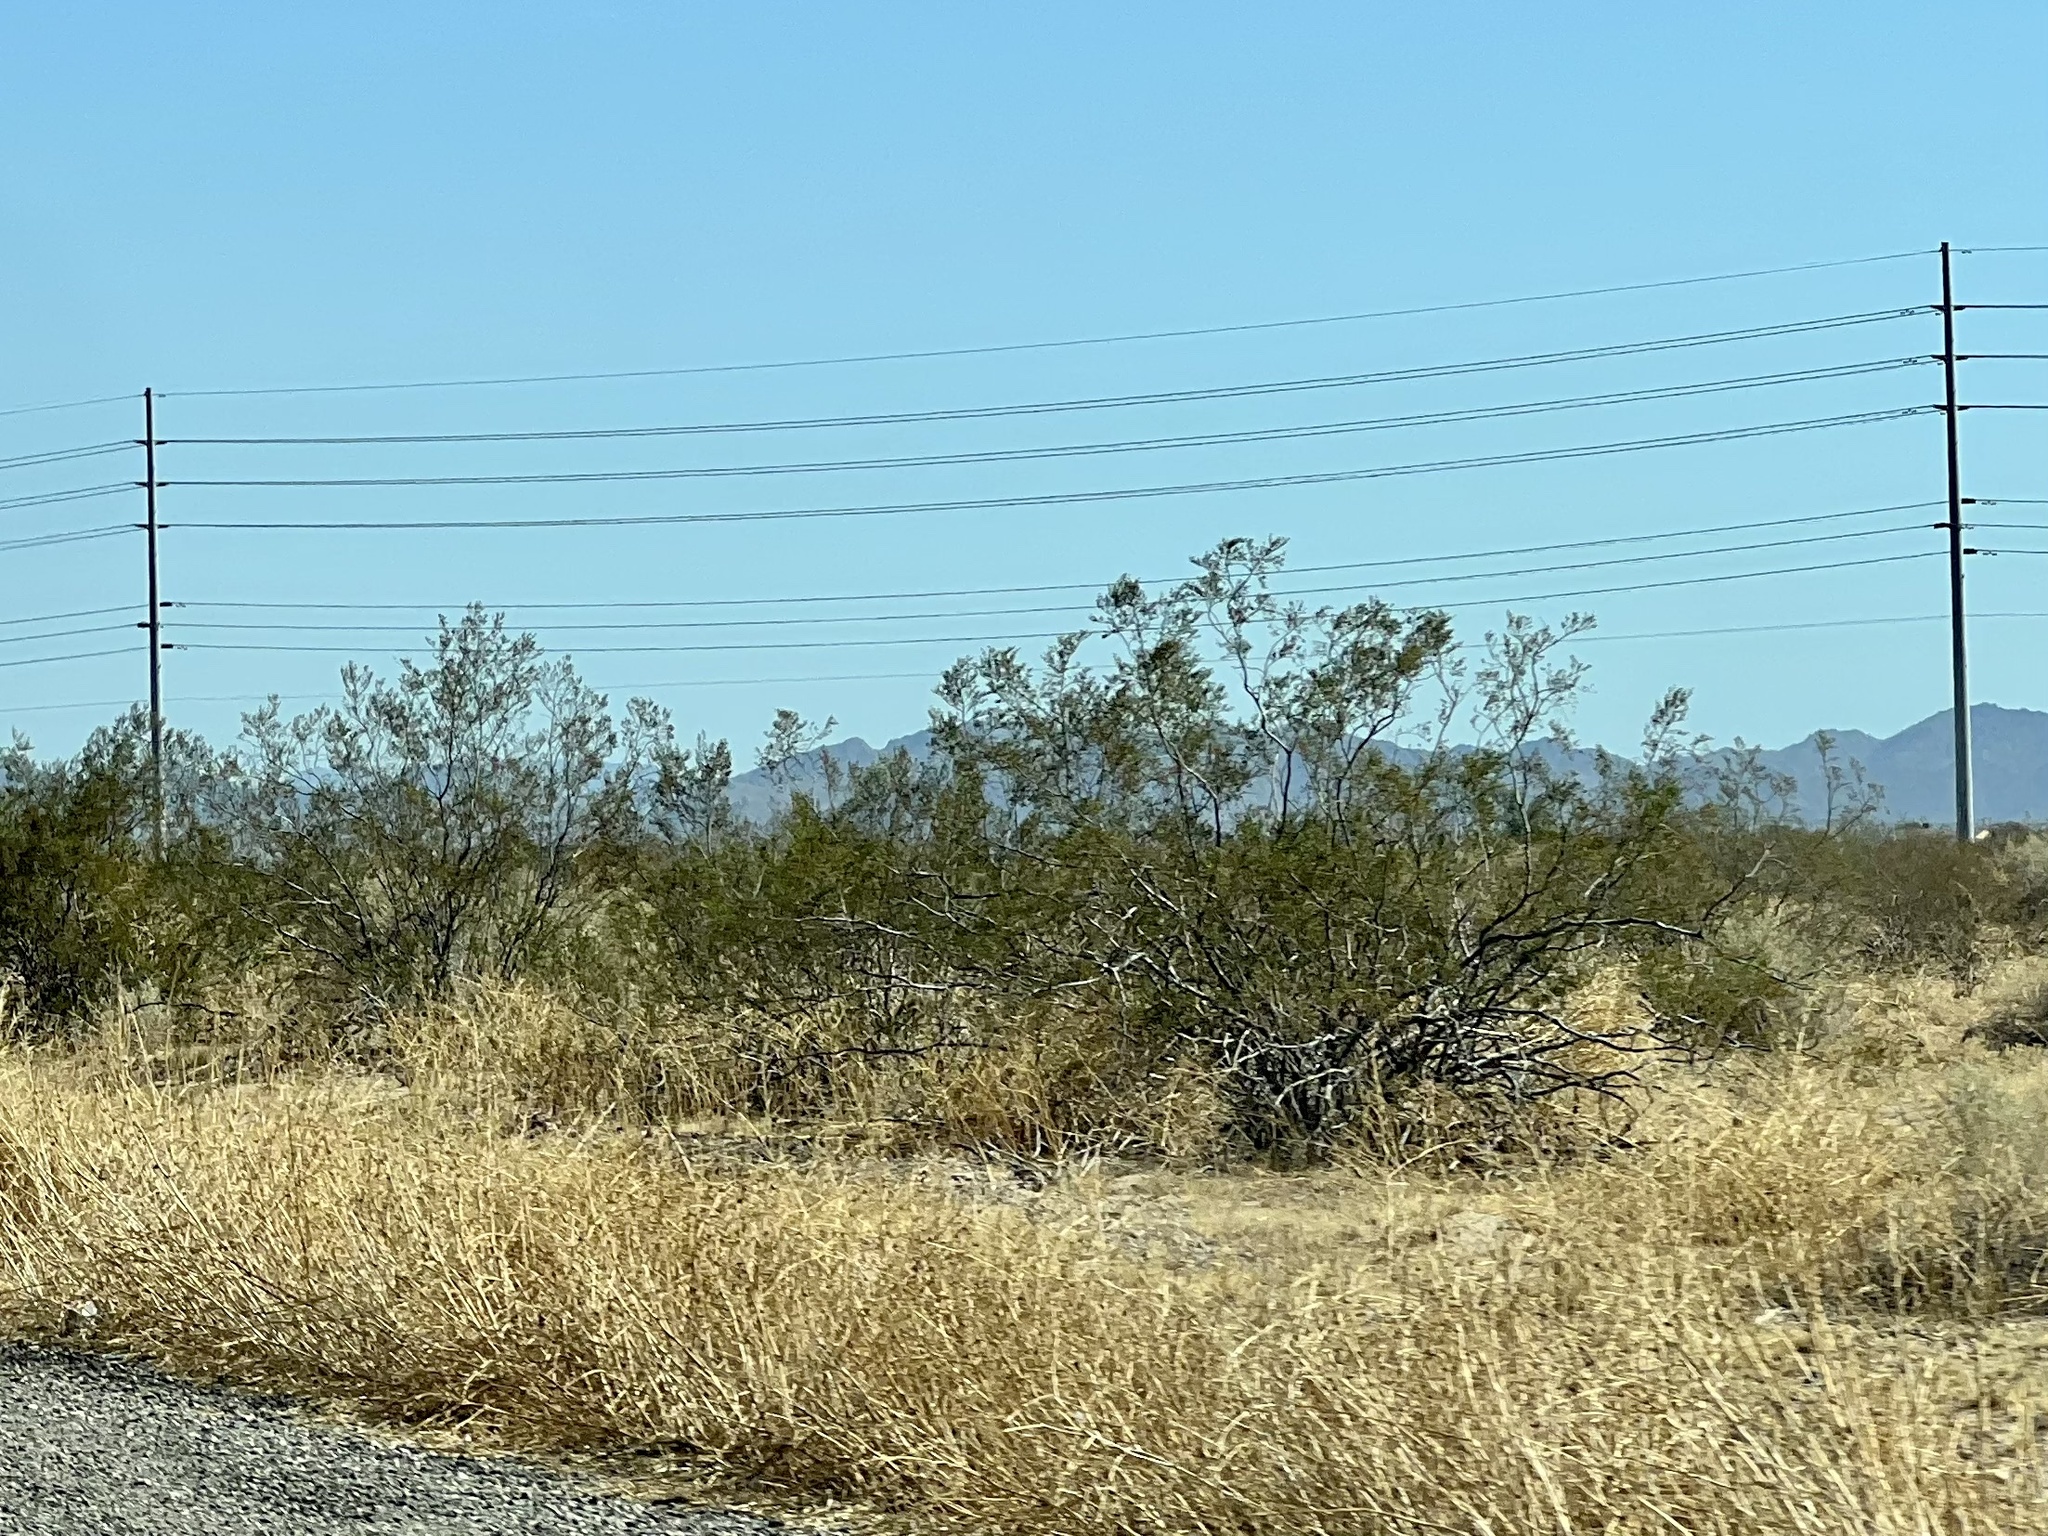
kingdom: Plantae
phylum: Tracheophyta
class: Magnoliopsida
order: Zygophyllales
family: Zygophyllaceae
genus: Larrea
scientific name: Larrea tridentata
